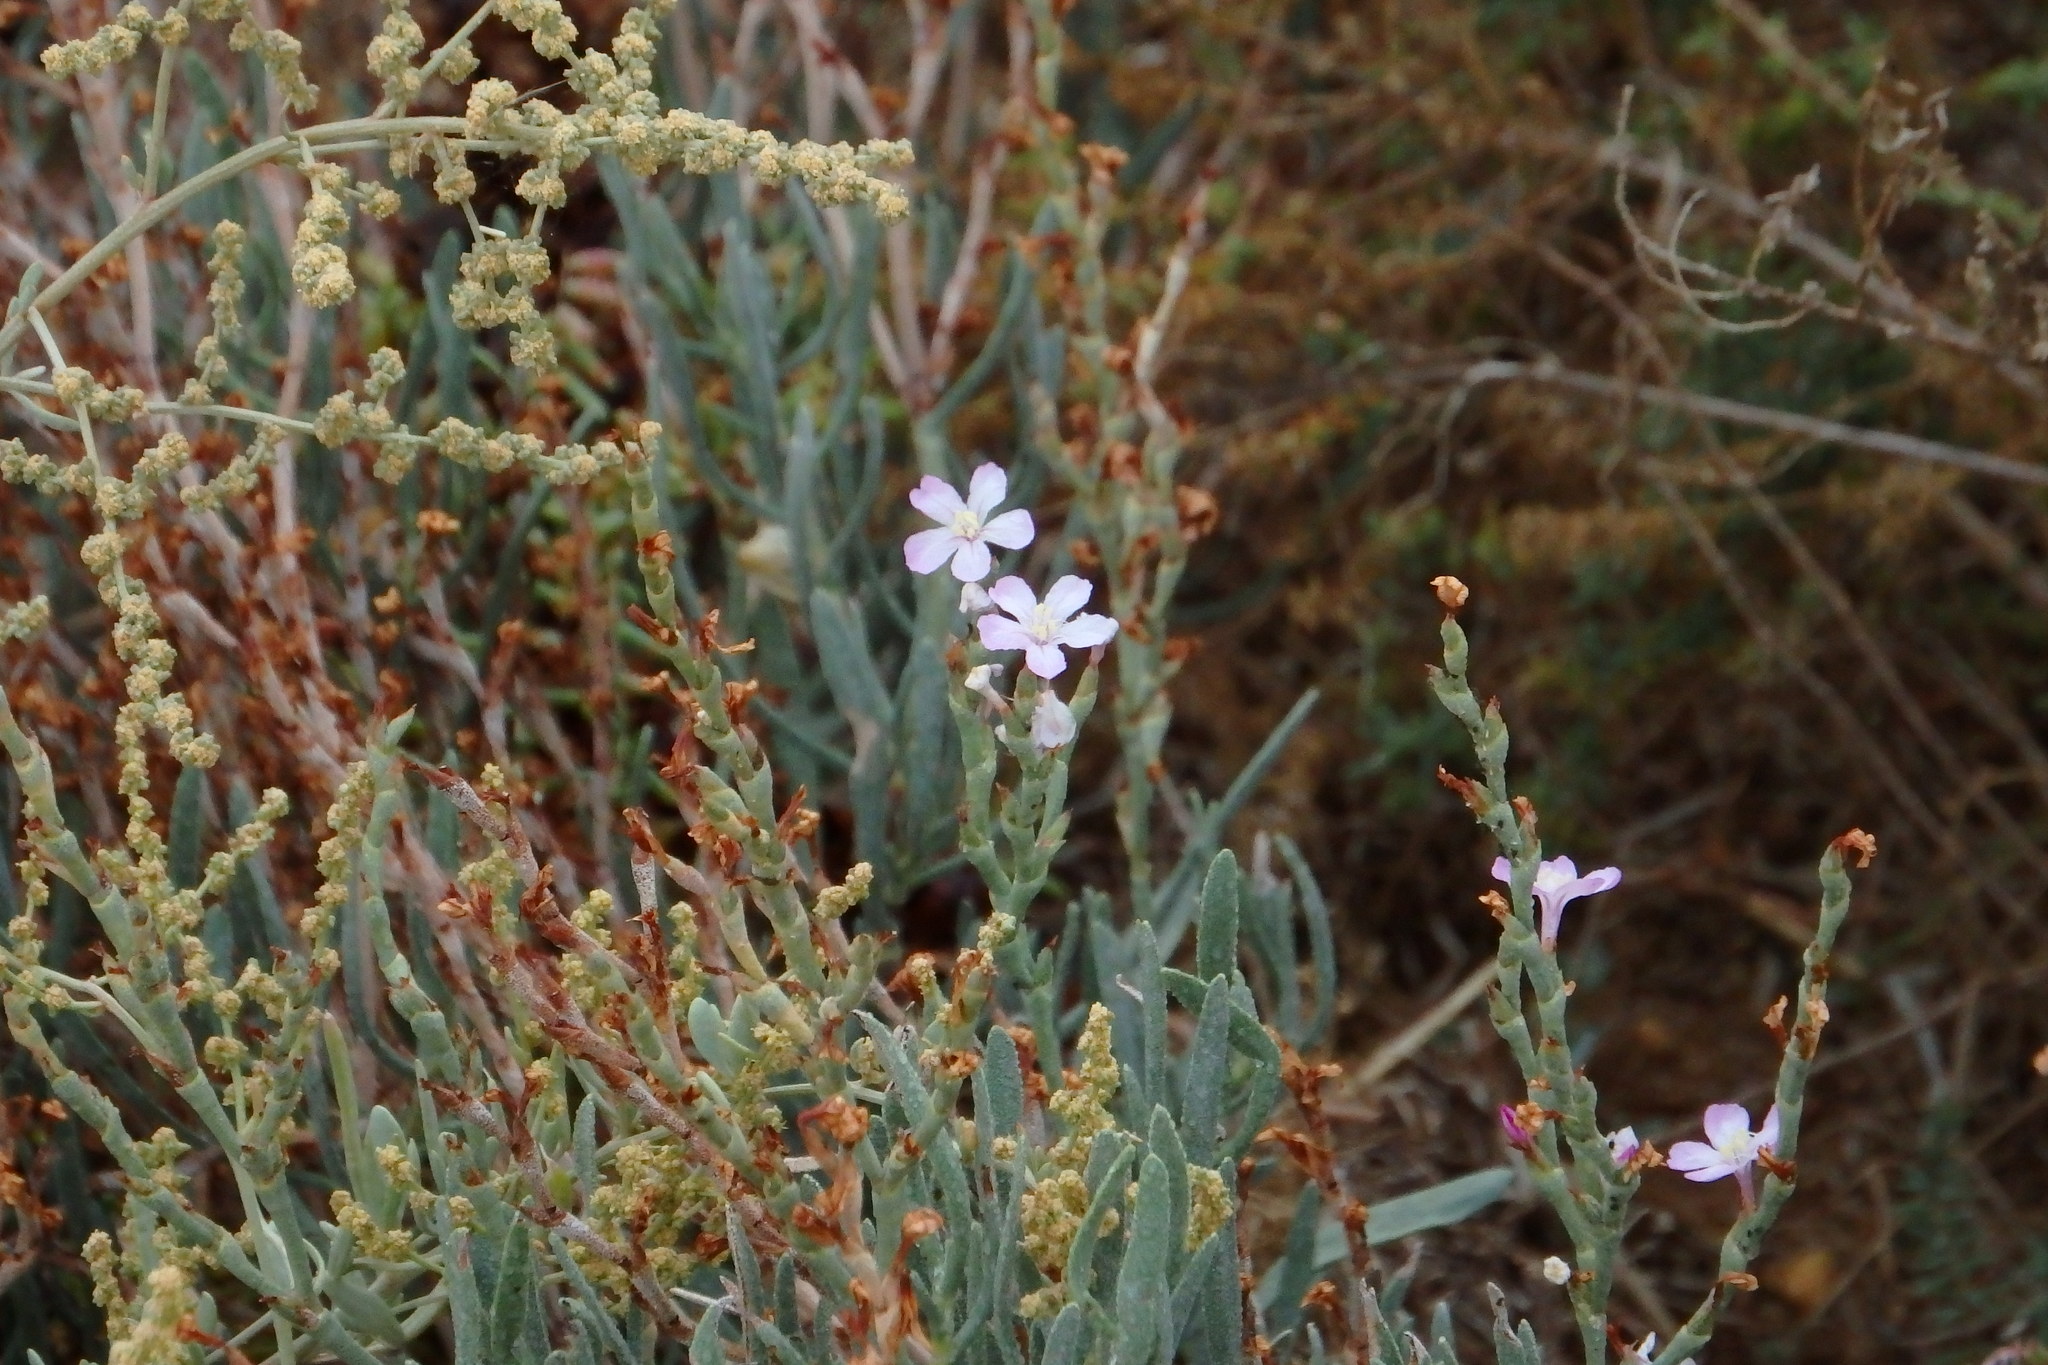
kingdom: Plantae
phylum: Tracheophyta
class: Magnoliopsida
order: Caryophyllales
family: Plumbaginaceae
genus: Limoniastrum
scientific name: Limoniastrum monopetalum
